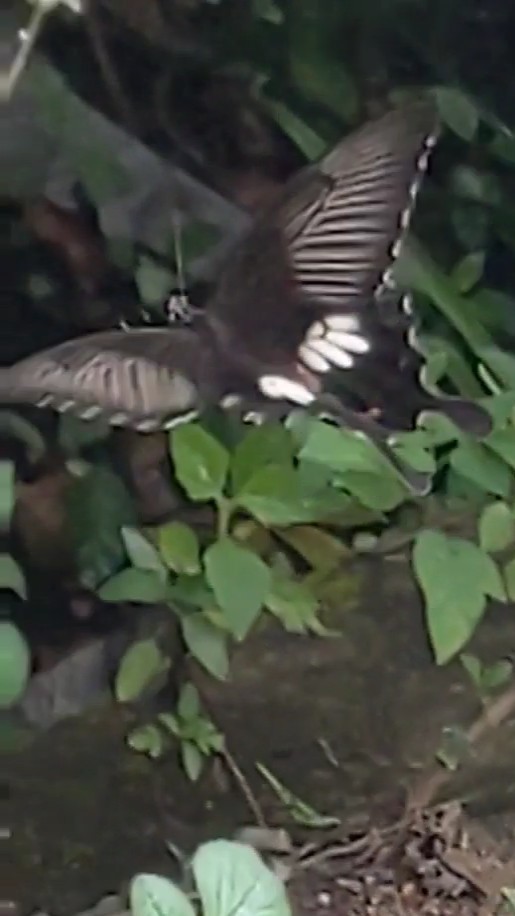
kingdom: Animalia
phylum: Arthropoda
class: Insecta
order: Lepidoptera
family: Papilionidae
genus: Papilio
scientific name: Papilio polytes
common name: Common mormon
